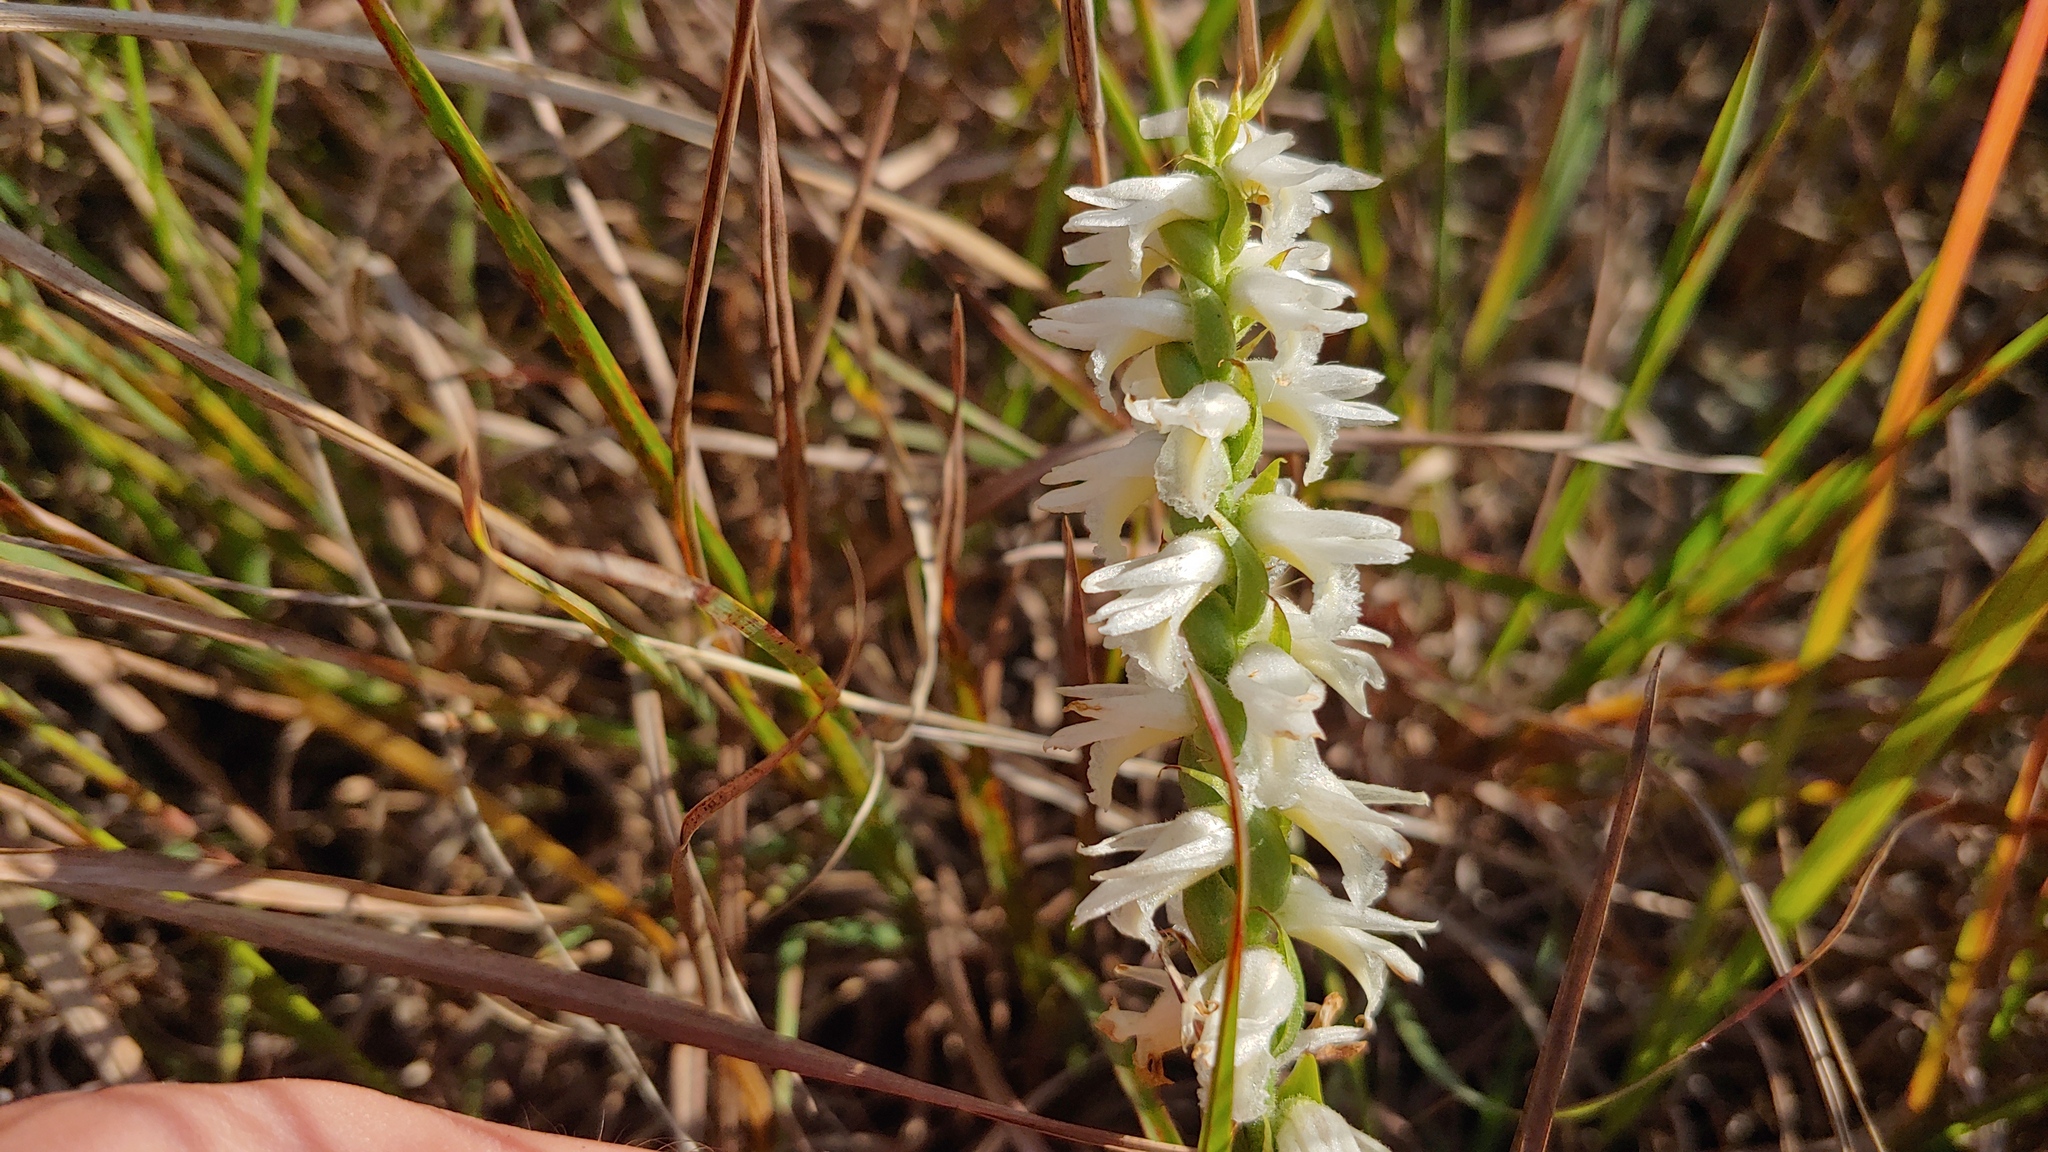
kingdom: Plantae
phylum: Tracheophyta
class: Liliopsida
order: Asparagales
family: Orchidaceae
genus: Spiranthes
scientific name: Spiranthes magnicamporum
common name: Great plains ladies'-tresses
